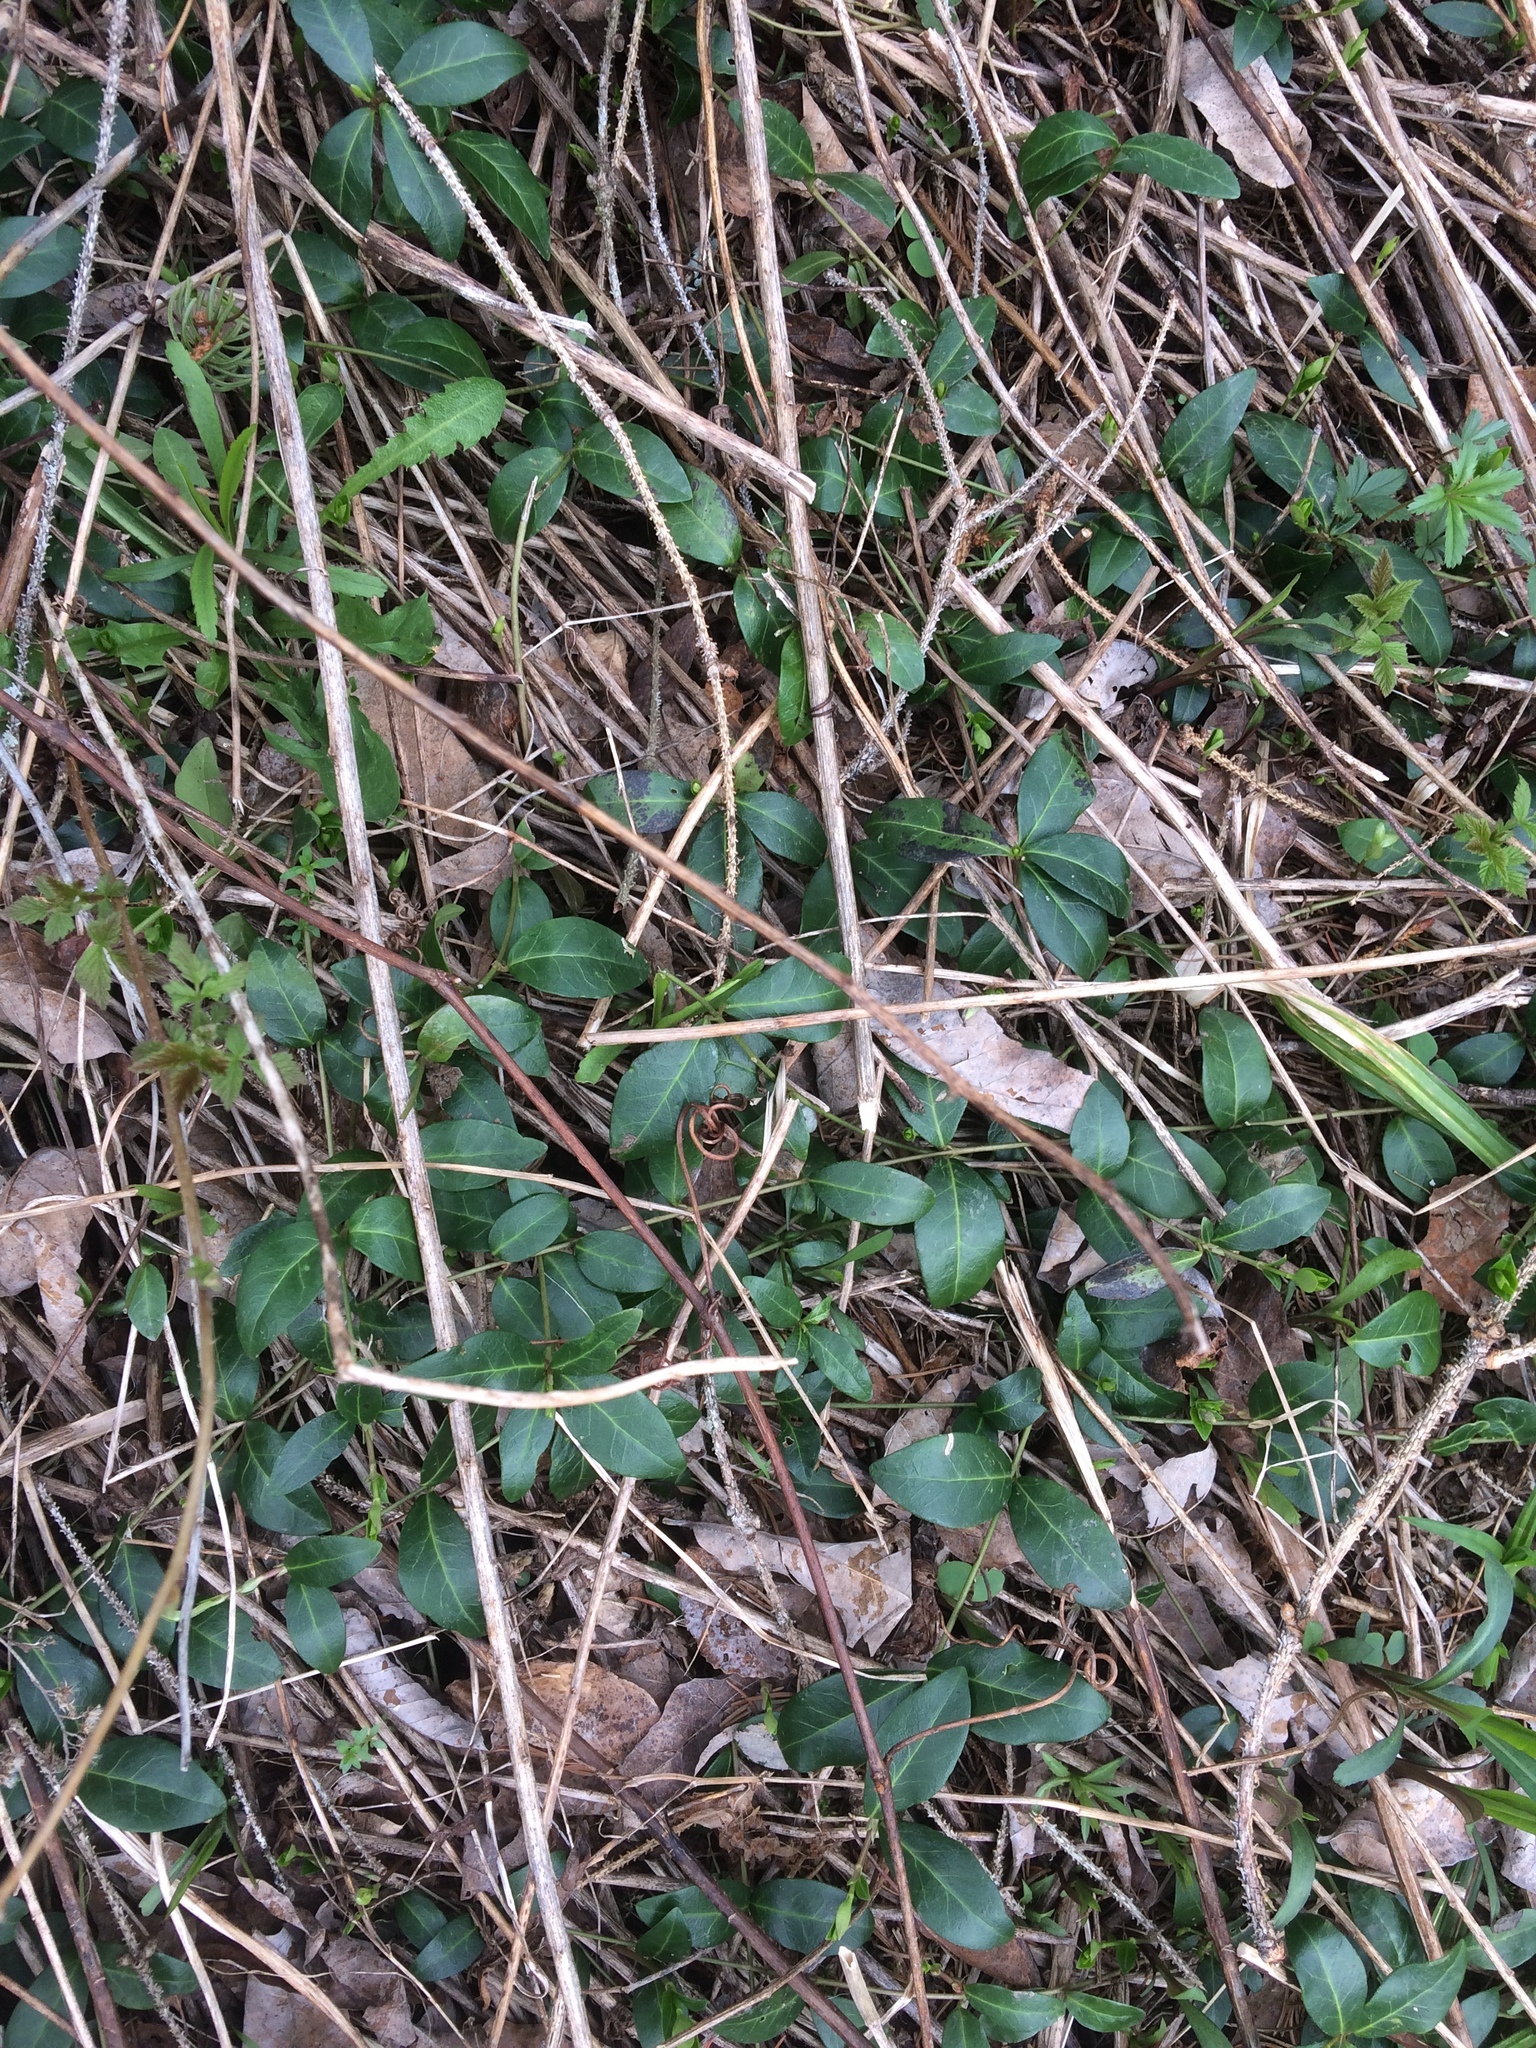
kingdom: Plantae
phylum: Tracheophyta
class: Magnoliopsida
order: Gentianales
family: Apocynaceae
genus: Vinca
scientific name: Vinca minor
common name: Lesser periwinkle
